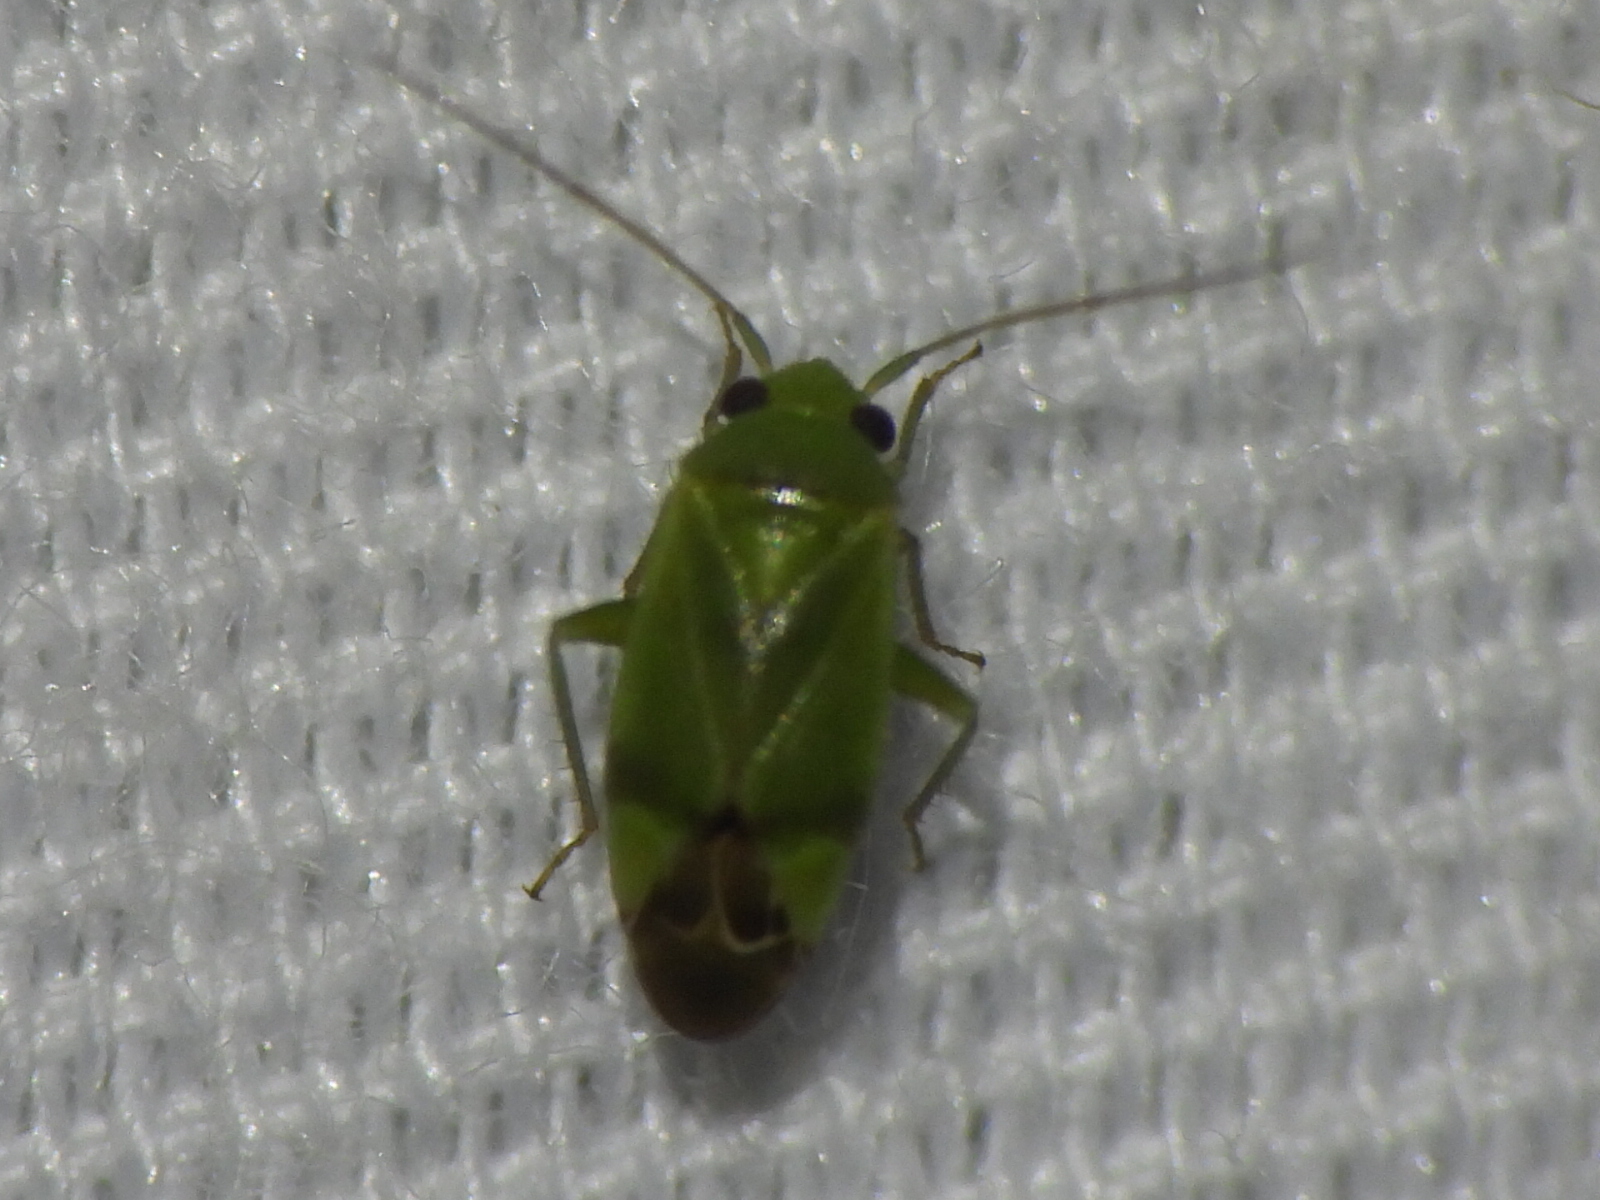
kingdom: Animalia
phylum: Arthropoda
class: Insecta
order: Hemiptera
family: Miridae
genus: Dichrooscytus
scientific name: Dichrooscytus
